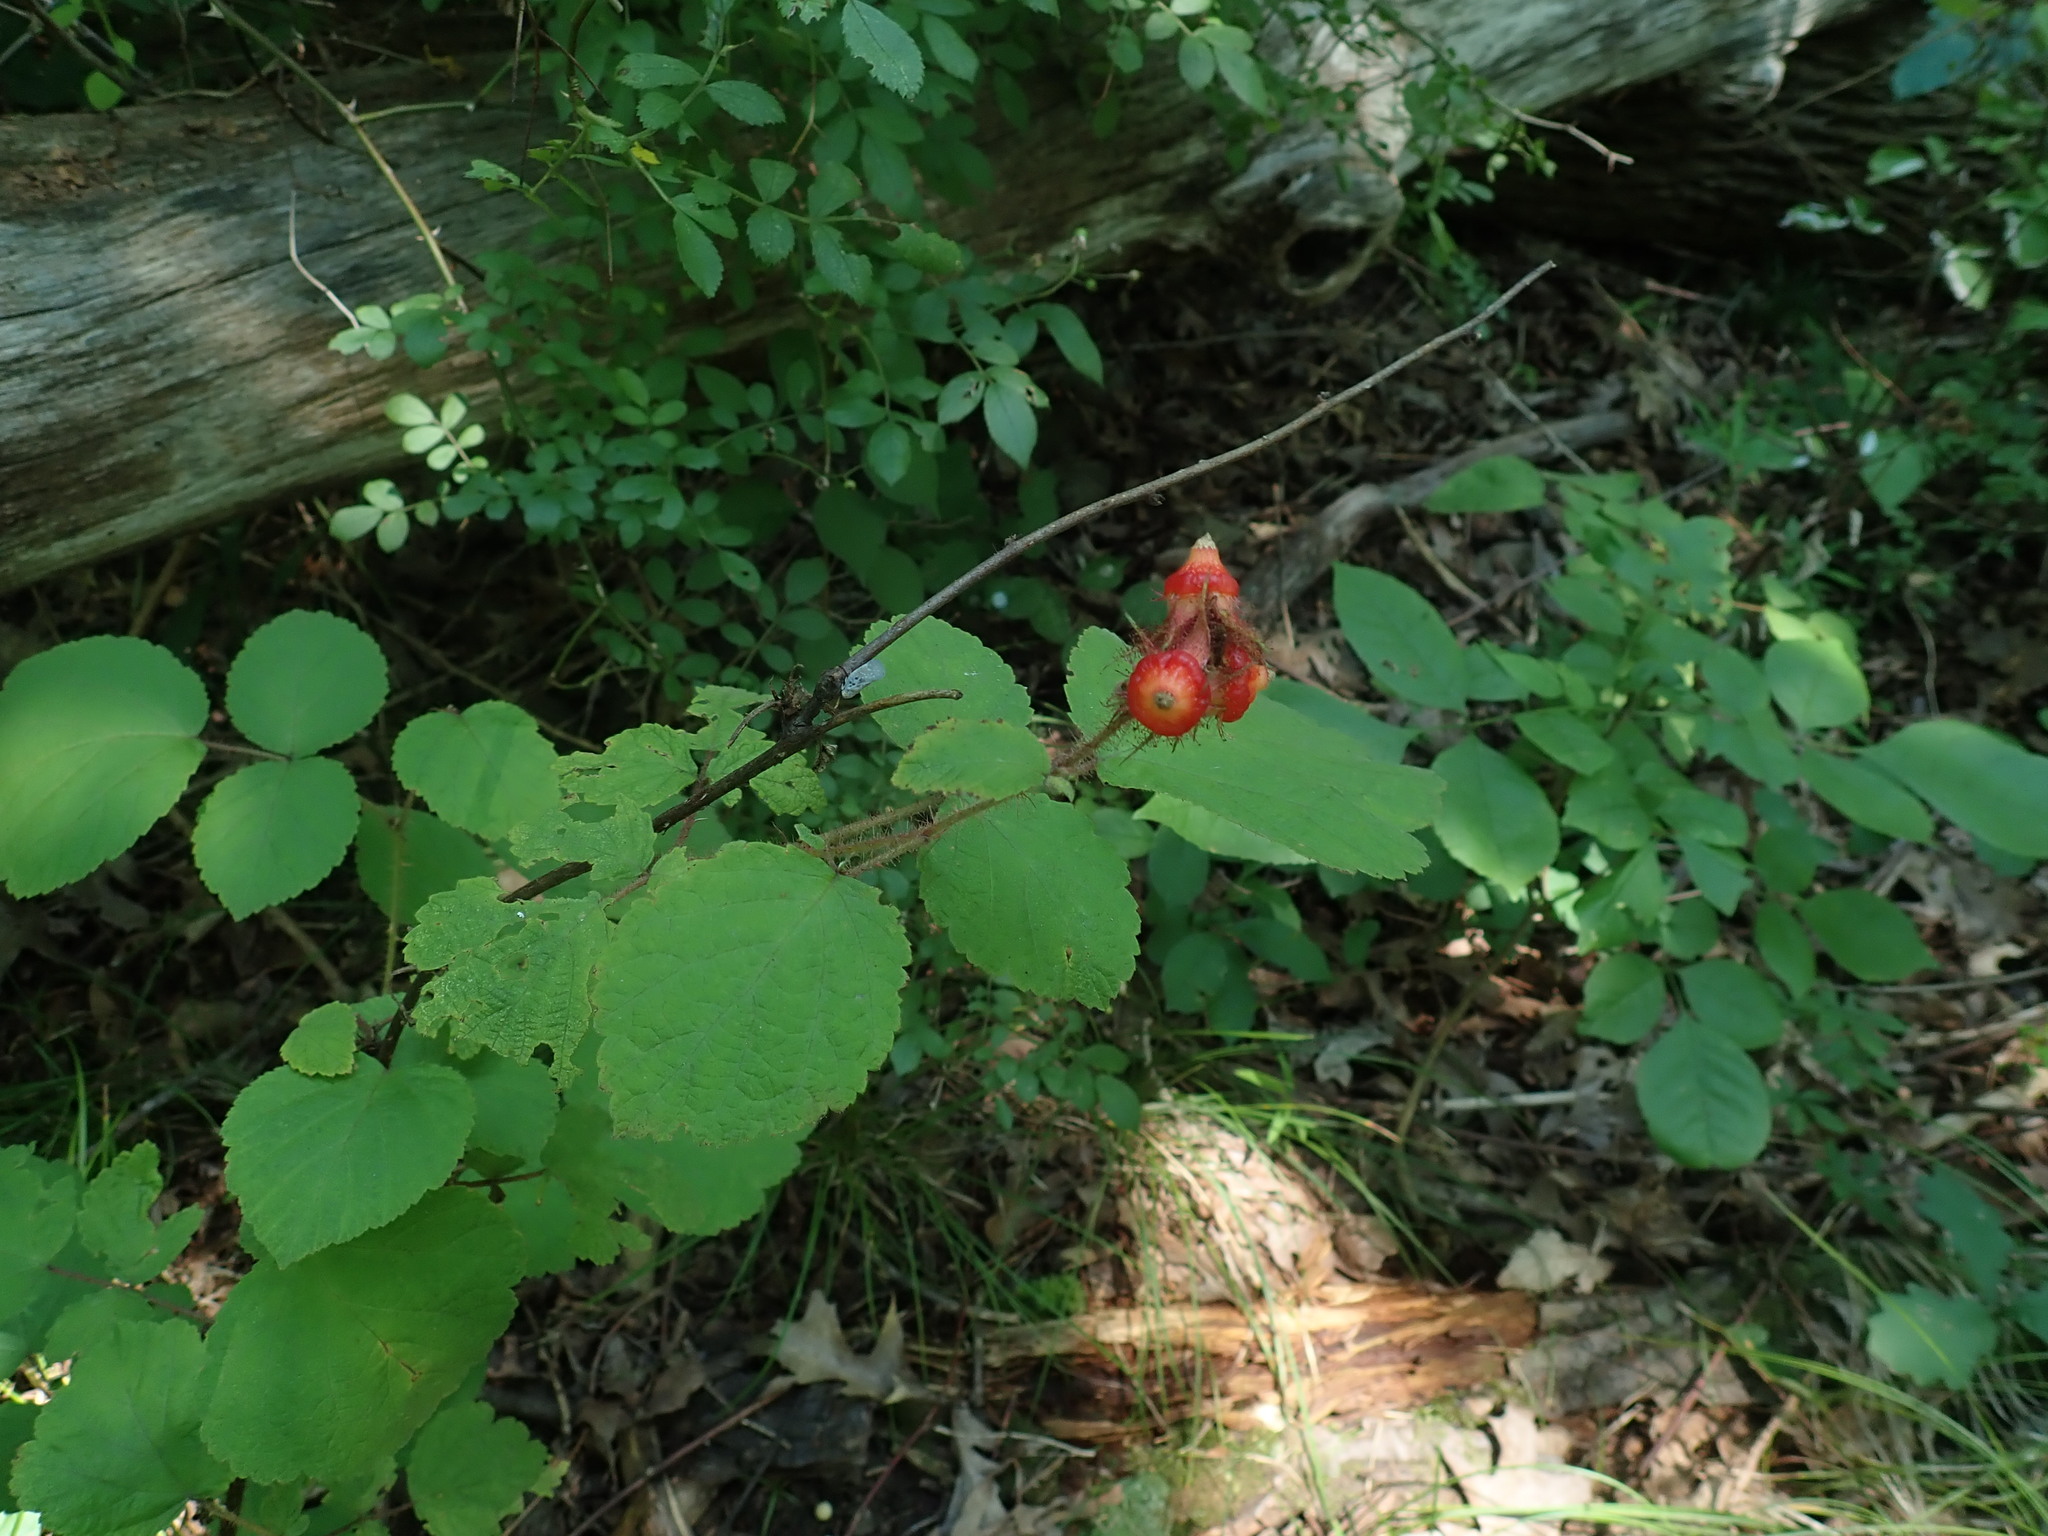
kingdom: Plantae
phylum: Tracheophyta
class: Magnoliopsida
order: Rosales
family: Rosaceae
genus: Rubus
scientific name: Rubus phoenicolasius
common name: Japanese wineberry
